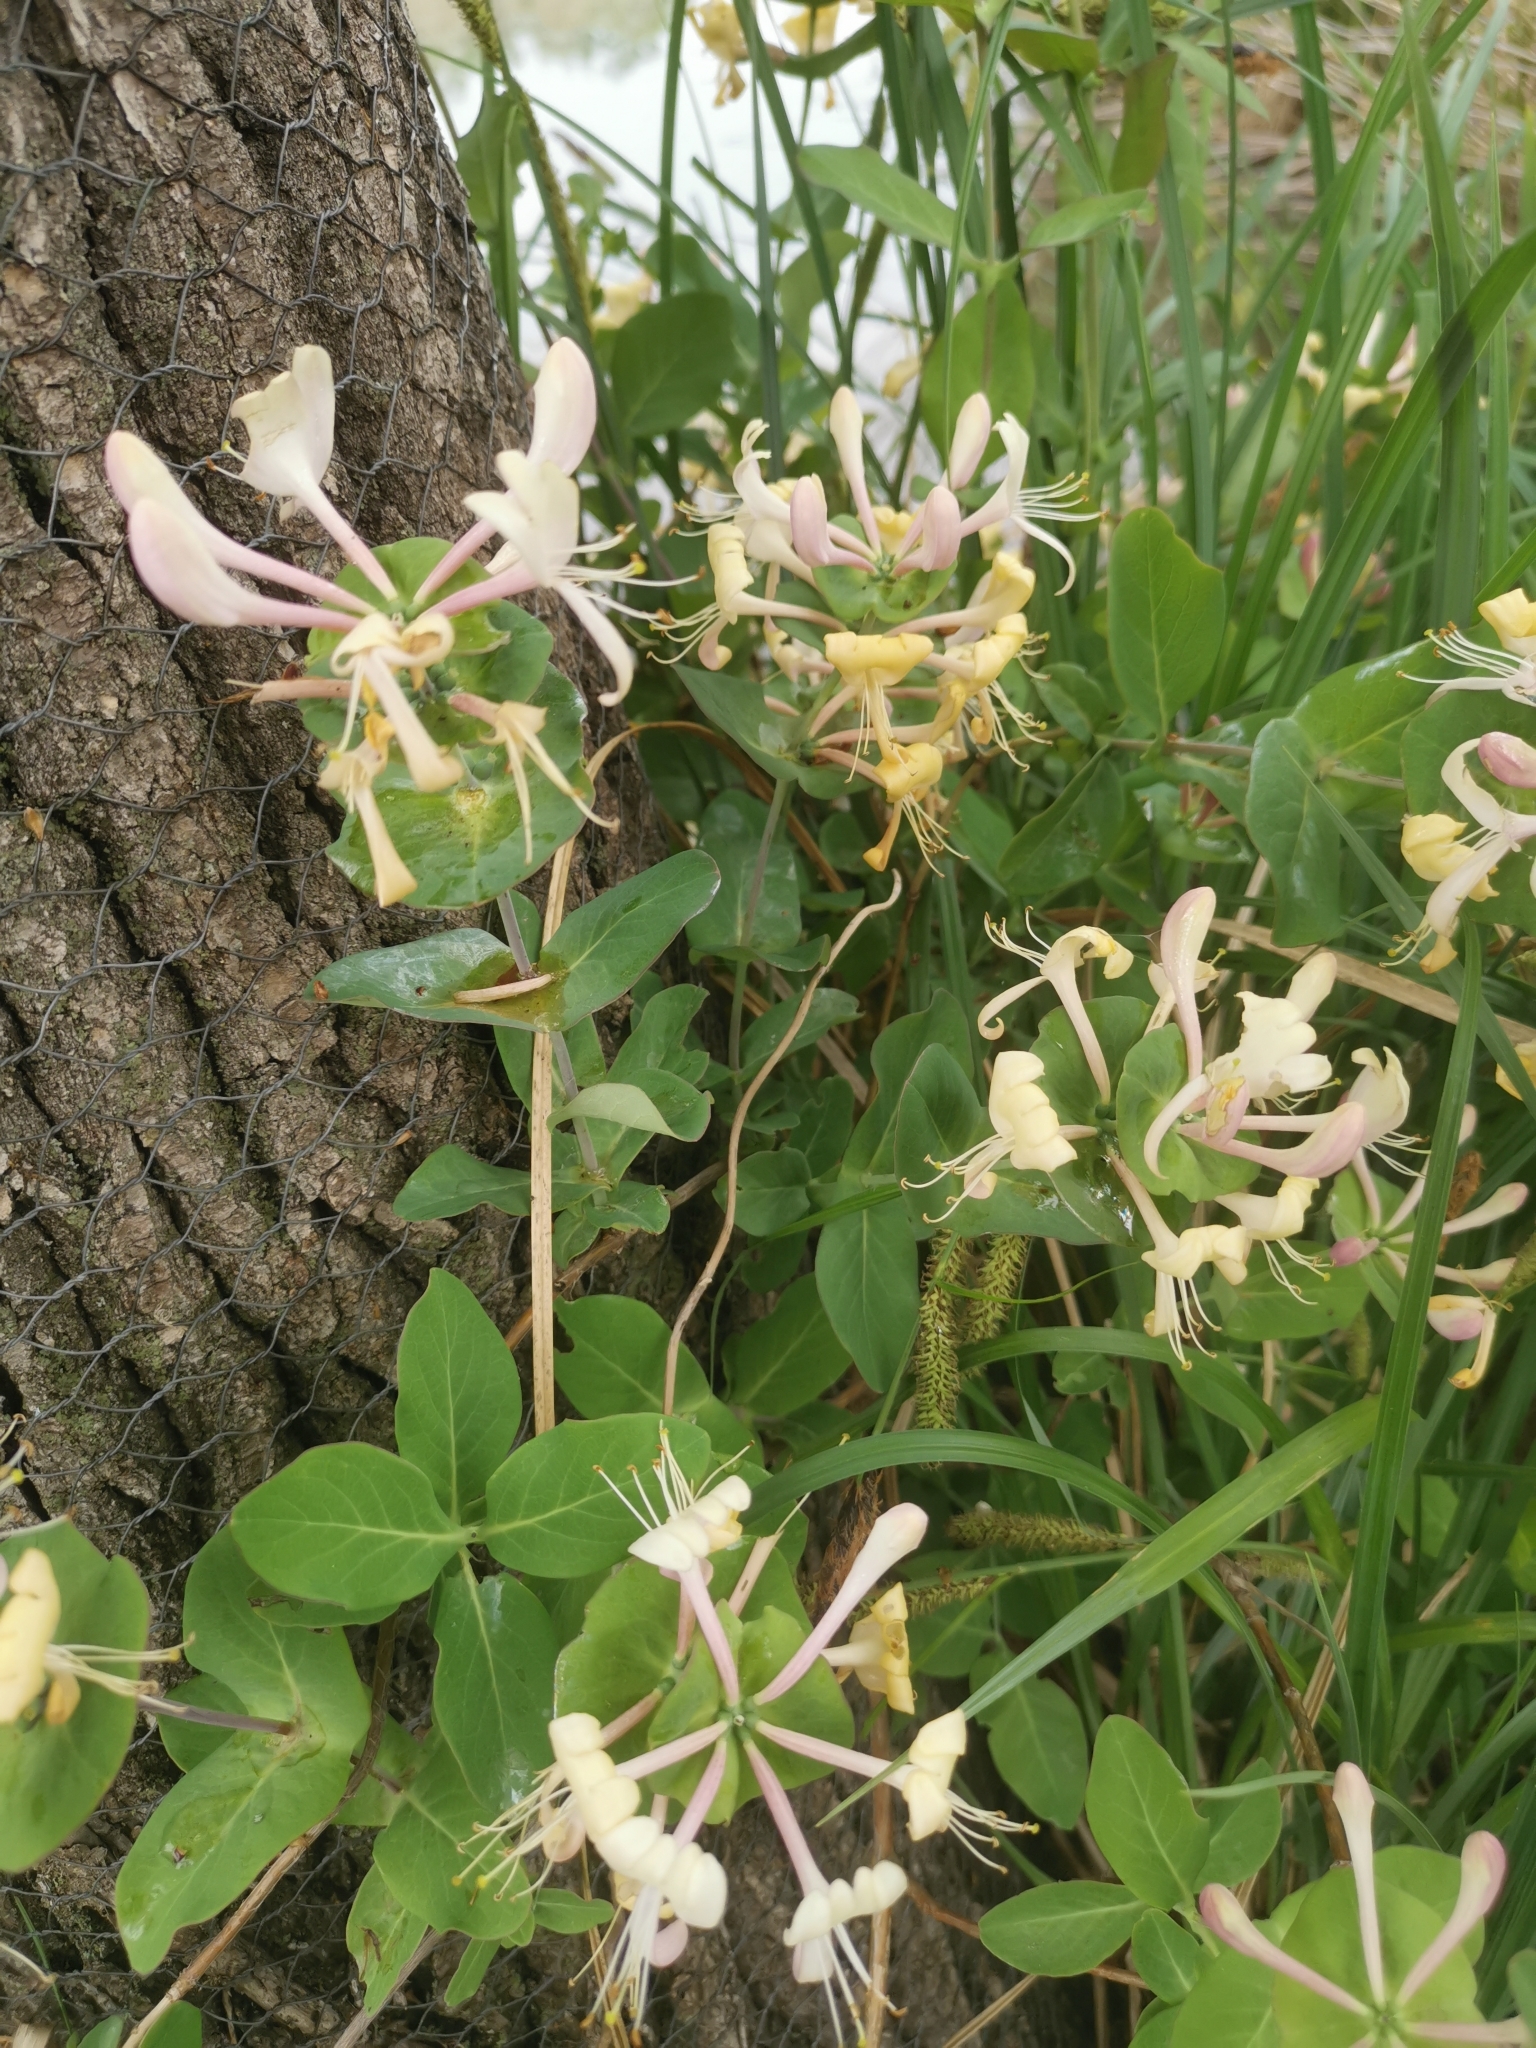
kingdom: Plantae
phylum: Tracheophyta
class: Magnoliopsida
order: Dipsacales
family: Caprifoliaceae
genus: Lonicera
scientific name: Lonicera caprifolium
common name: Perfoliate honeysuckle
